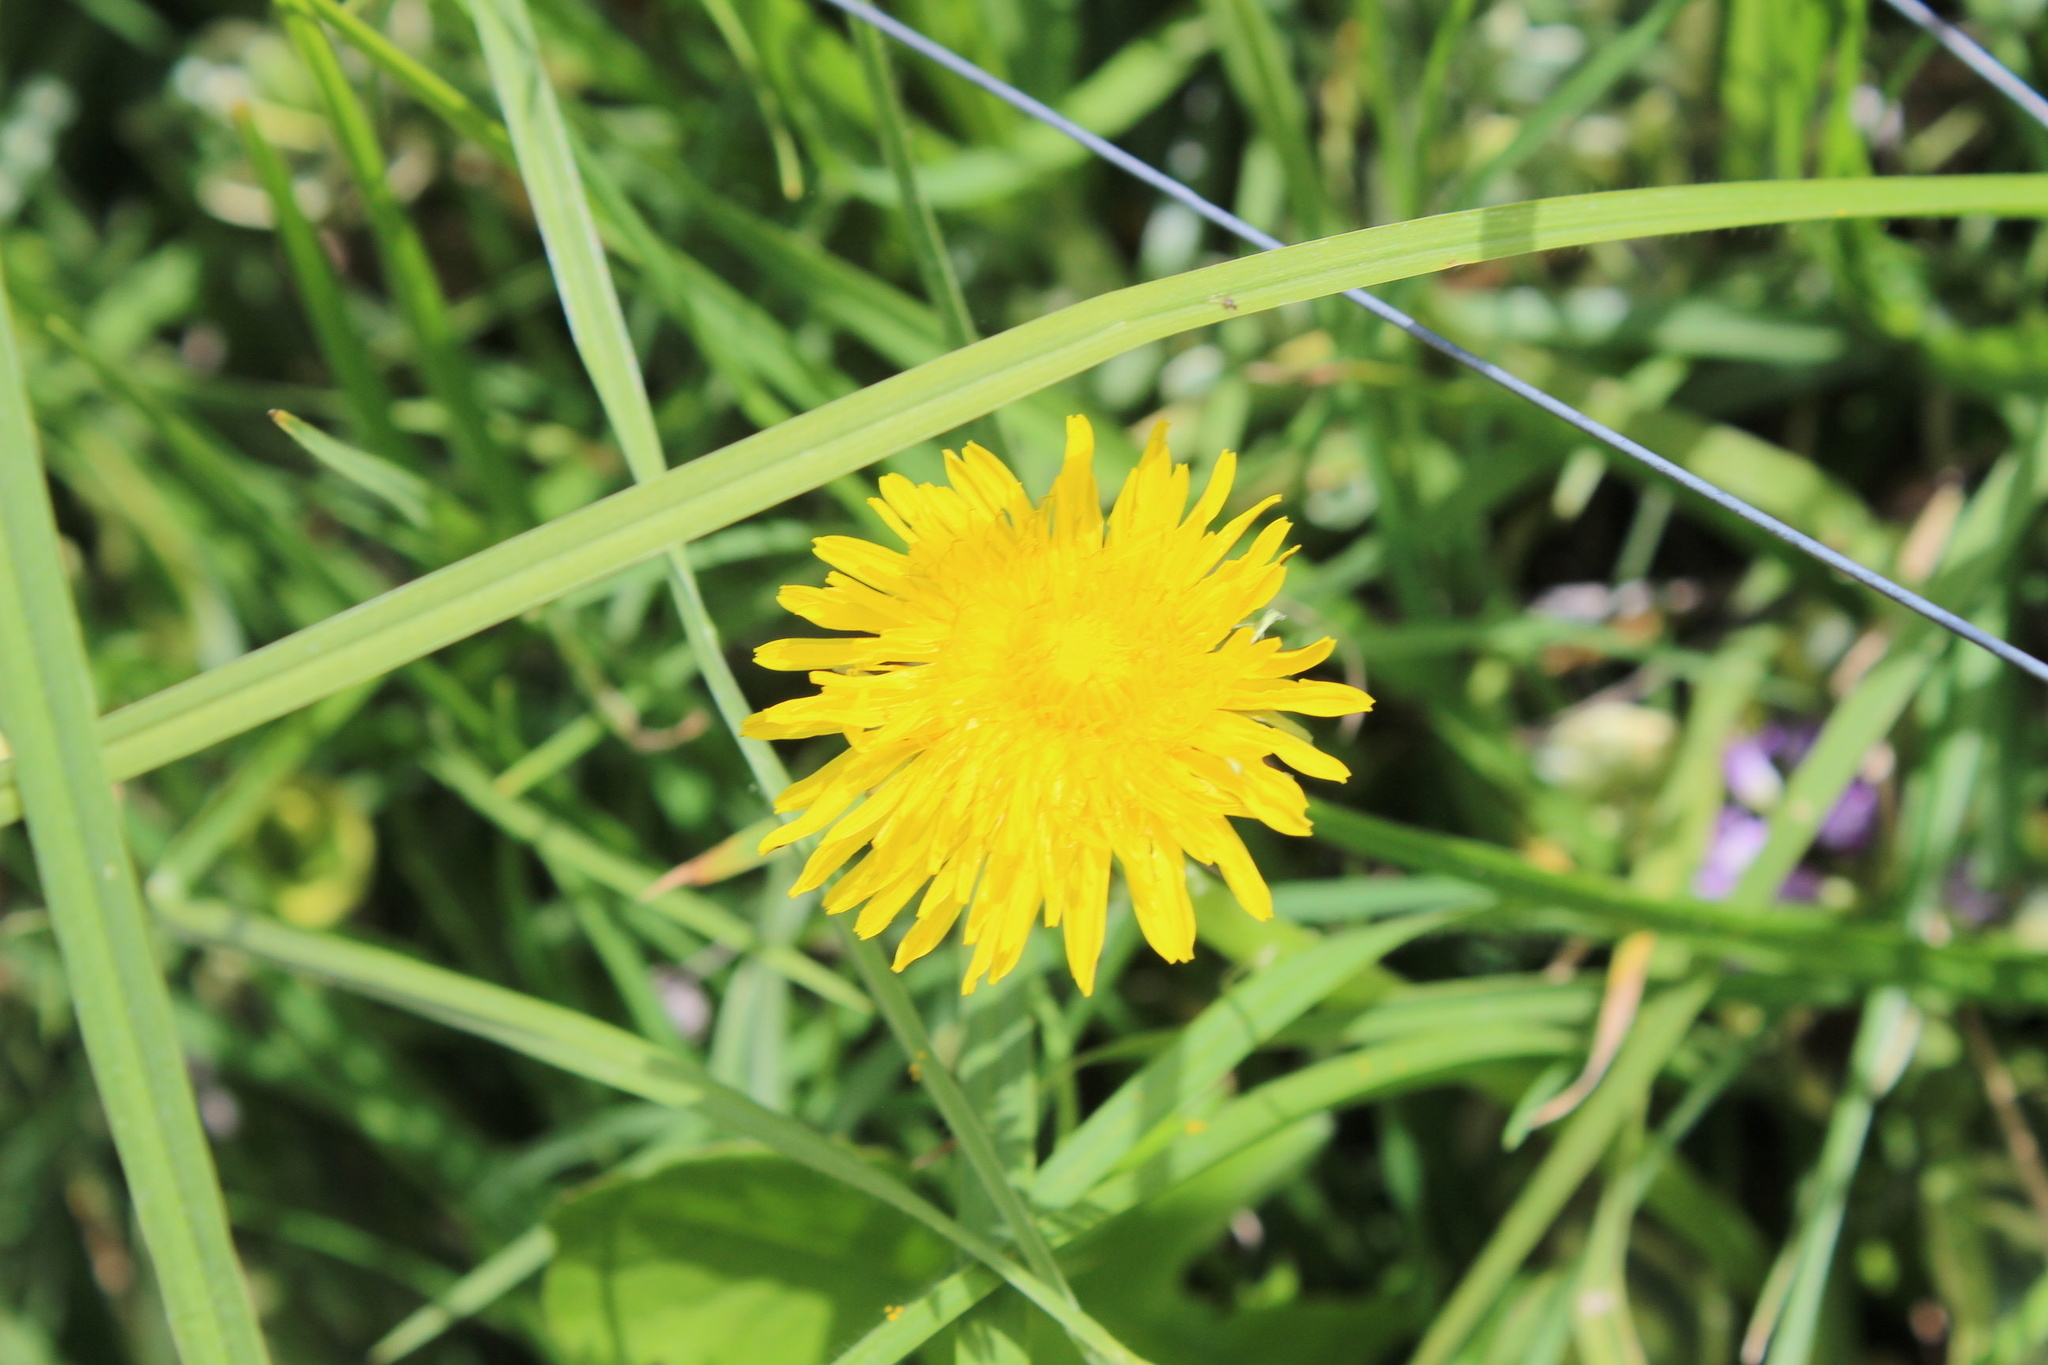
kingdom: Plantae
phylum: Tracheophyta
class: Magnoliopsida
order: Asterales
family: Asteraceae
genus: Taraxacum
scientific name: Taraxacum officinale
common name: Common dandelion
